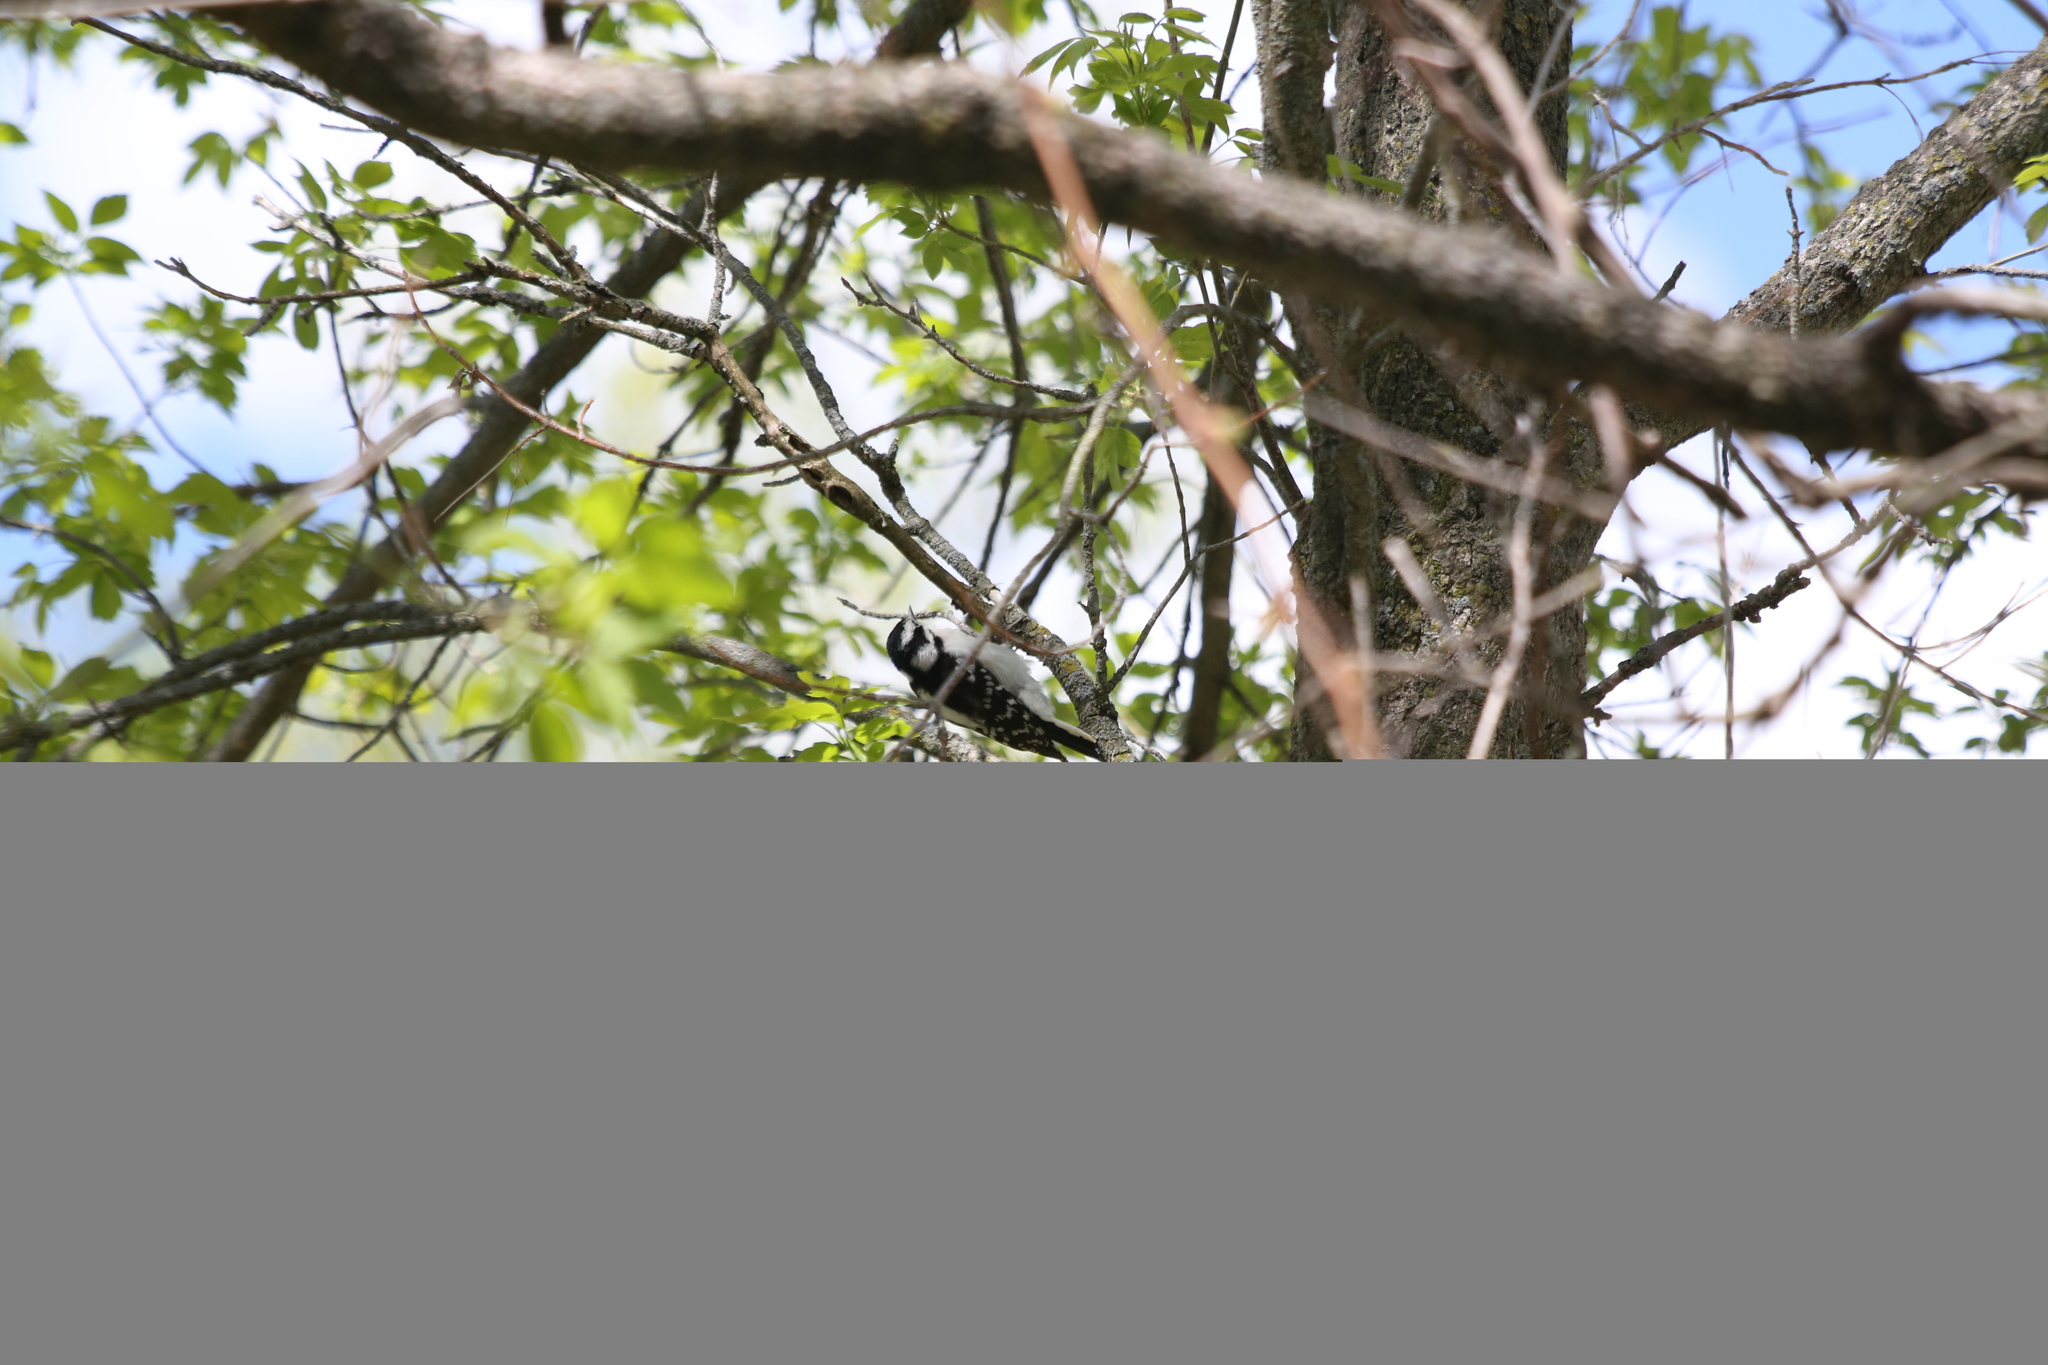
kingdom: Animalia
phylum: Chordata
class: Aves
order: Piciformes
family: Picidae
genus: Dryobates
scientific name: Dryobates pubescens
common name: Downy woodpecker
